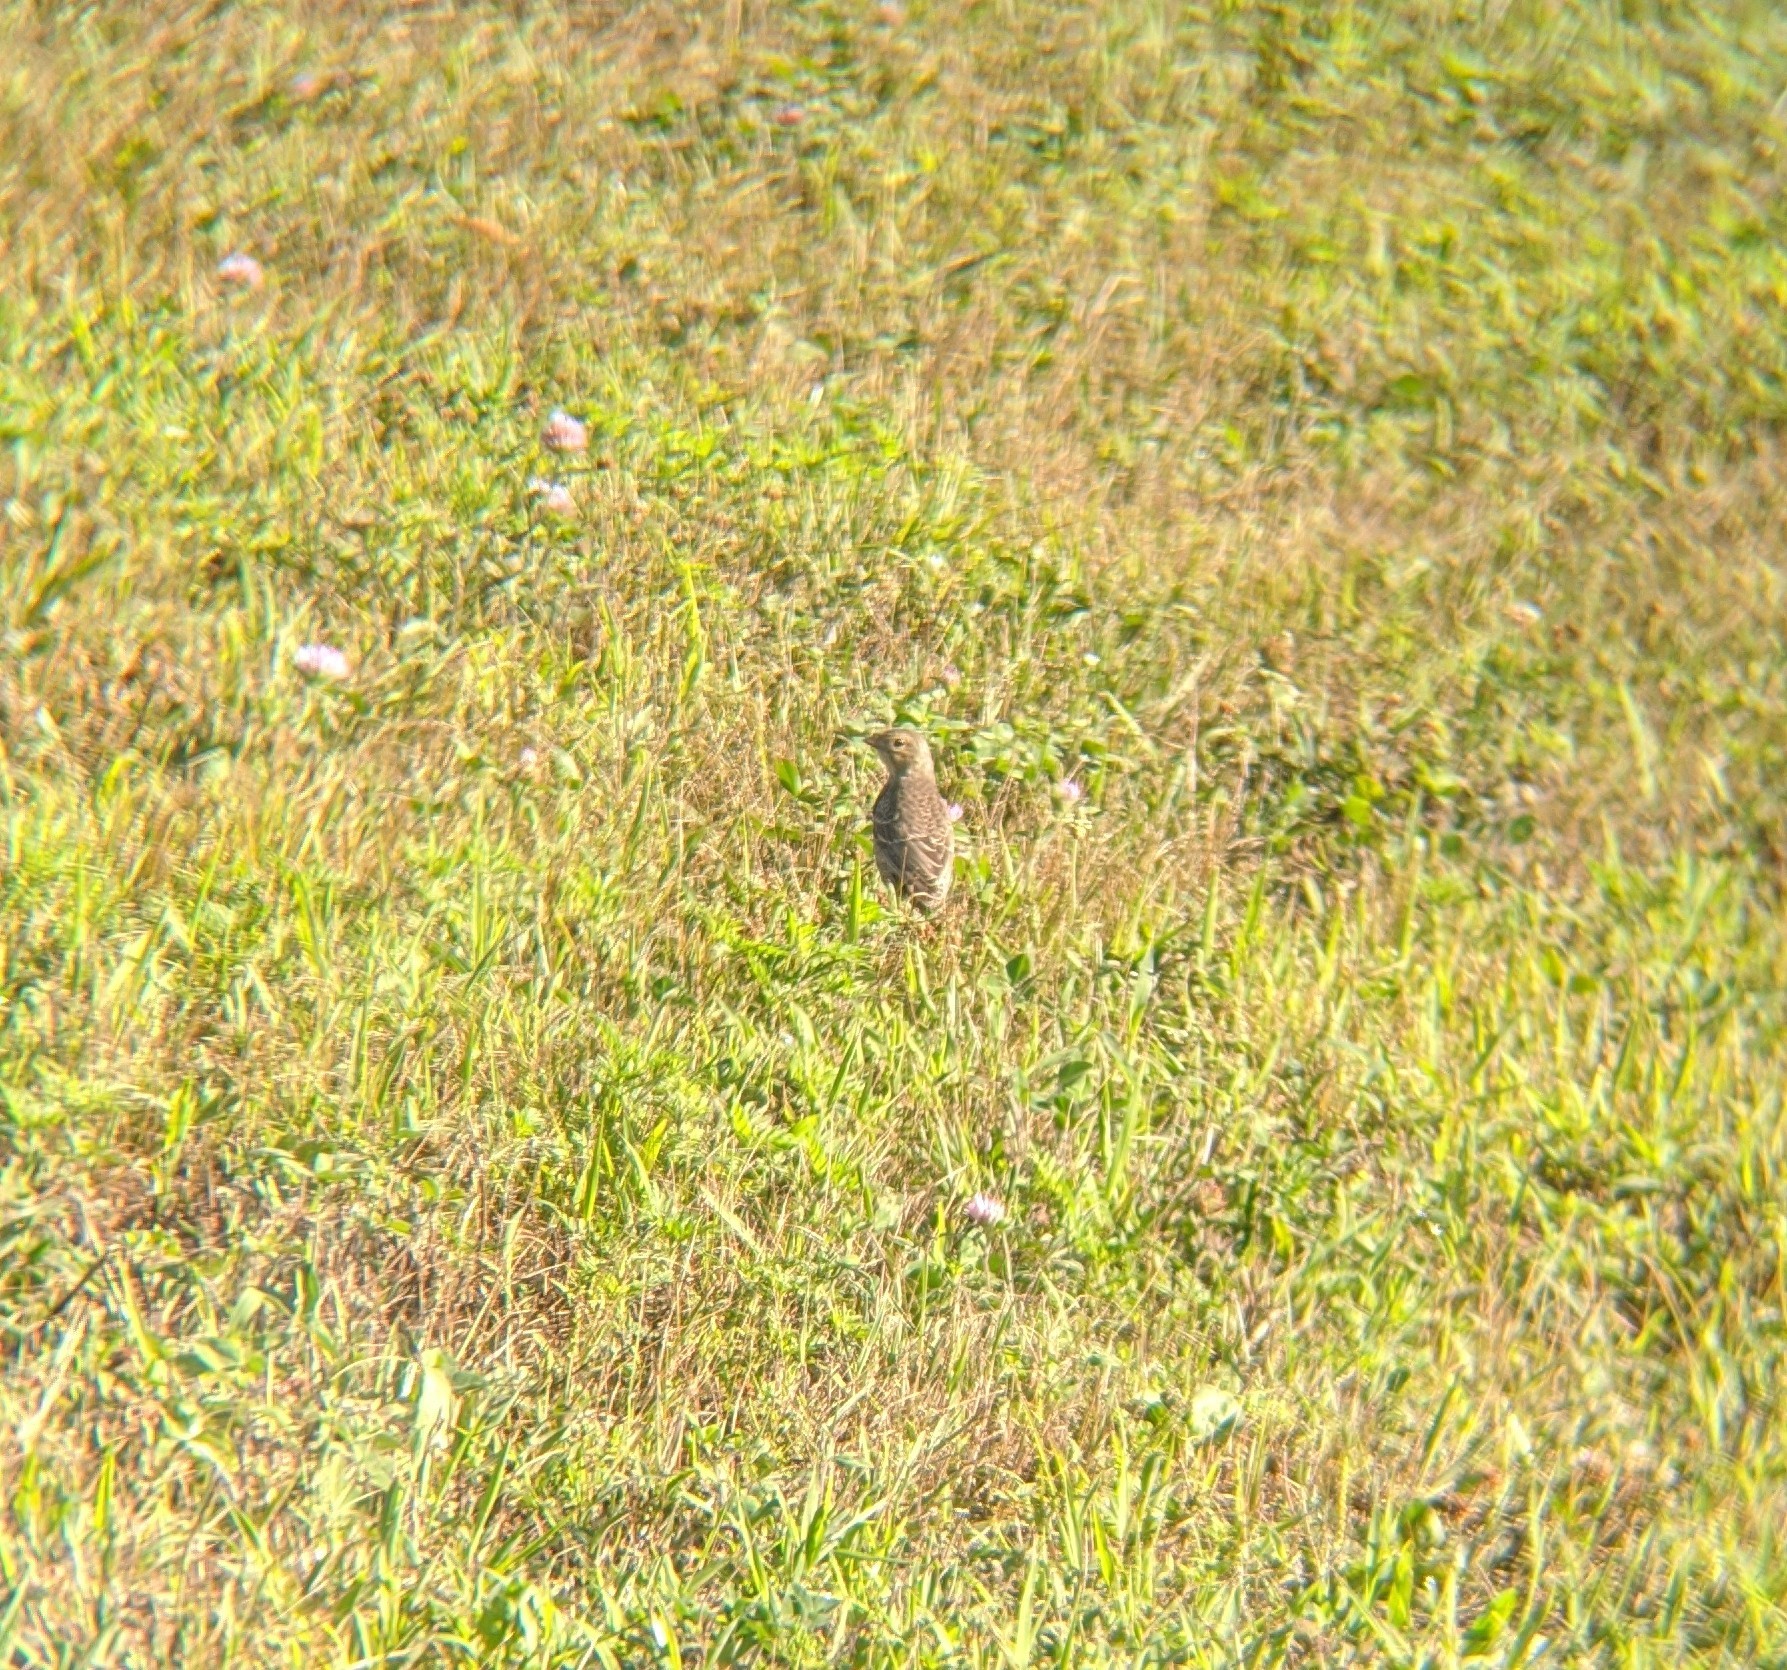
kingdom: Animalia
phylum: Chordata
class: Aves
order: Passeriformes
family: Icteridae
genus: Molothrus
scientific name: Molothrus ater
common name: Brown-headed cowbird
